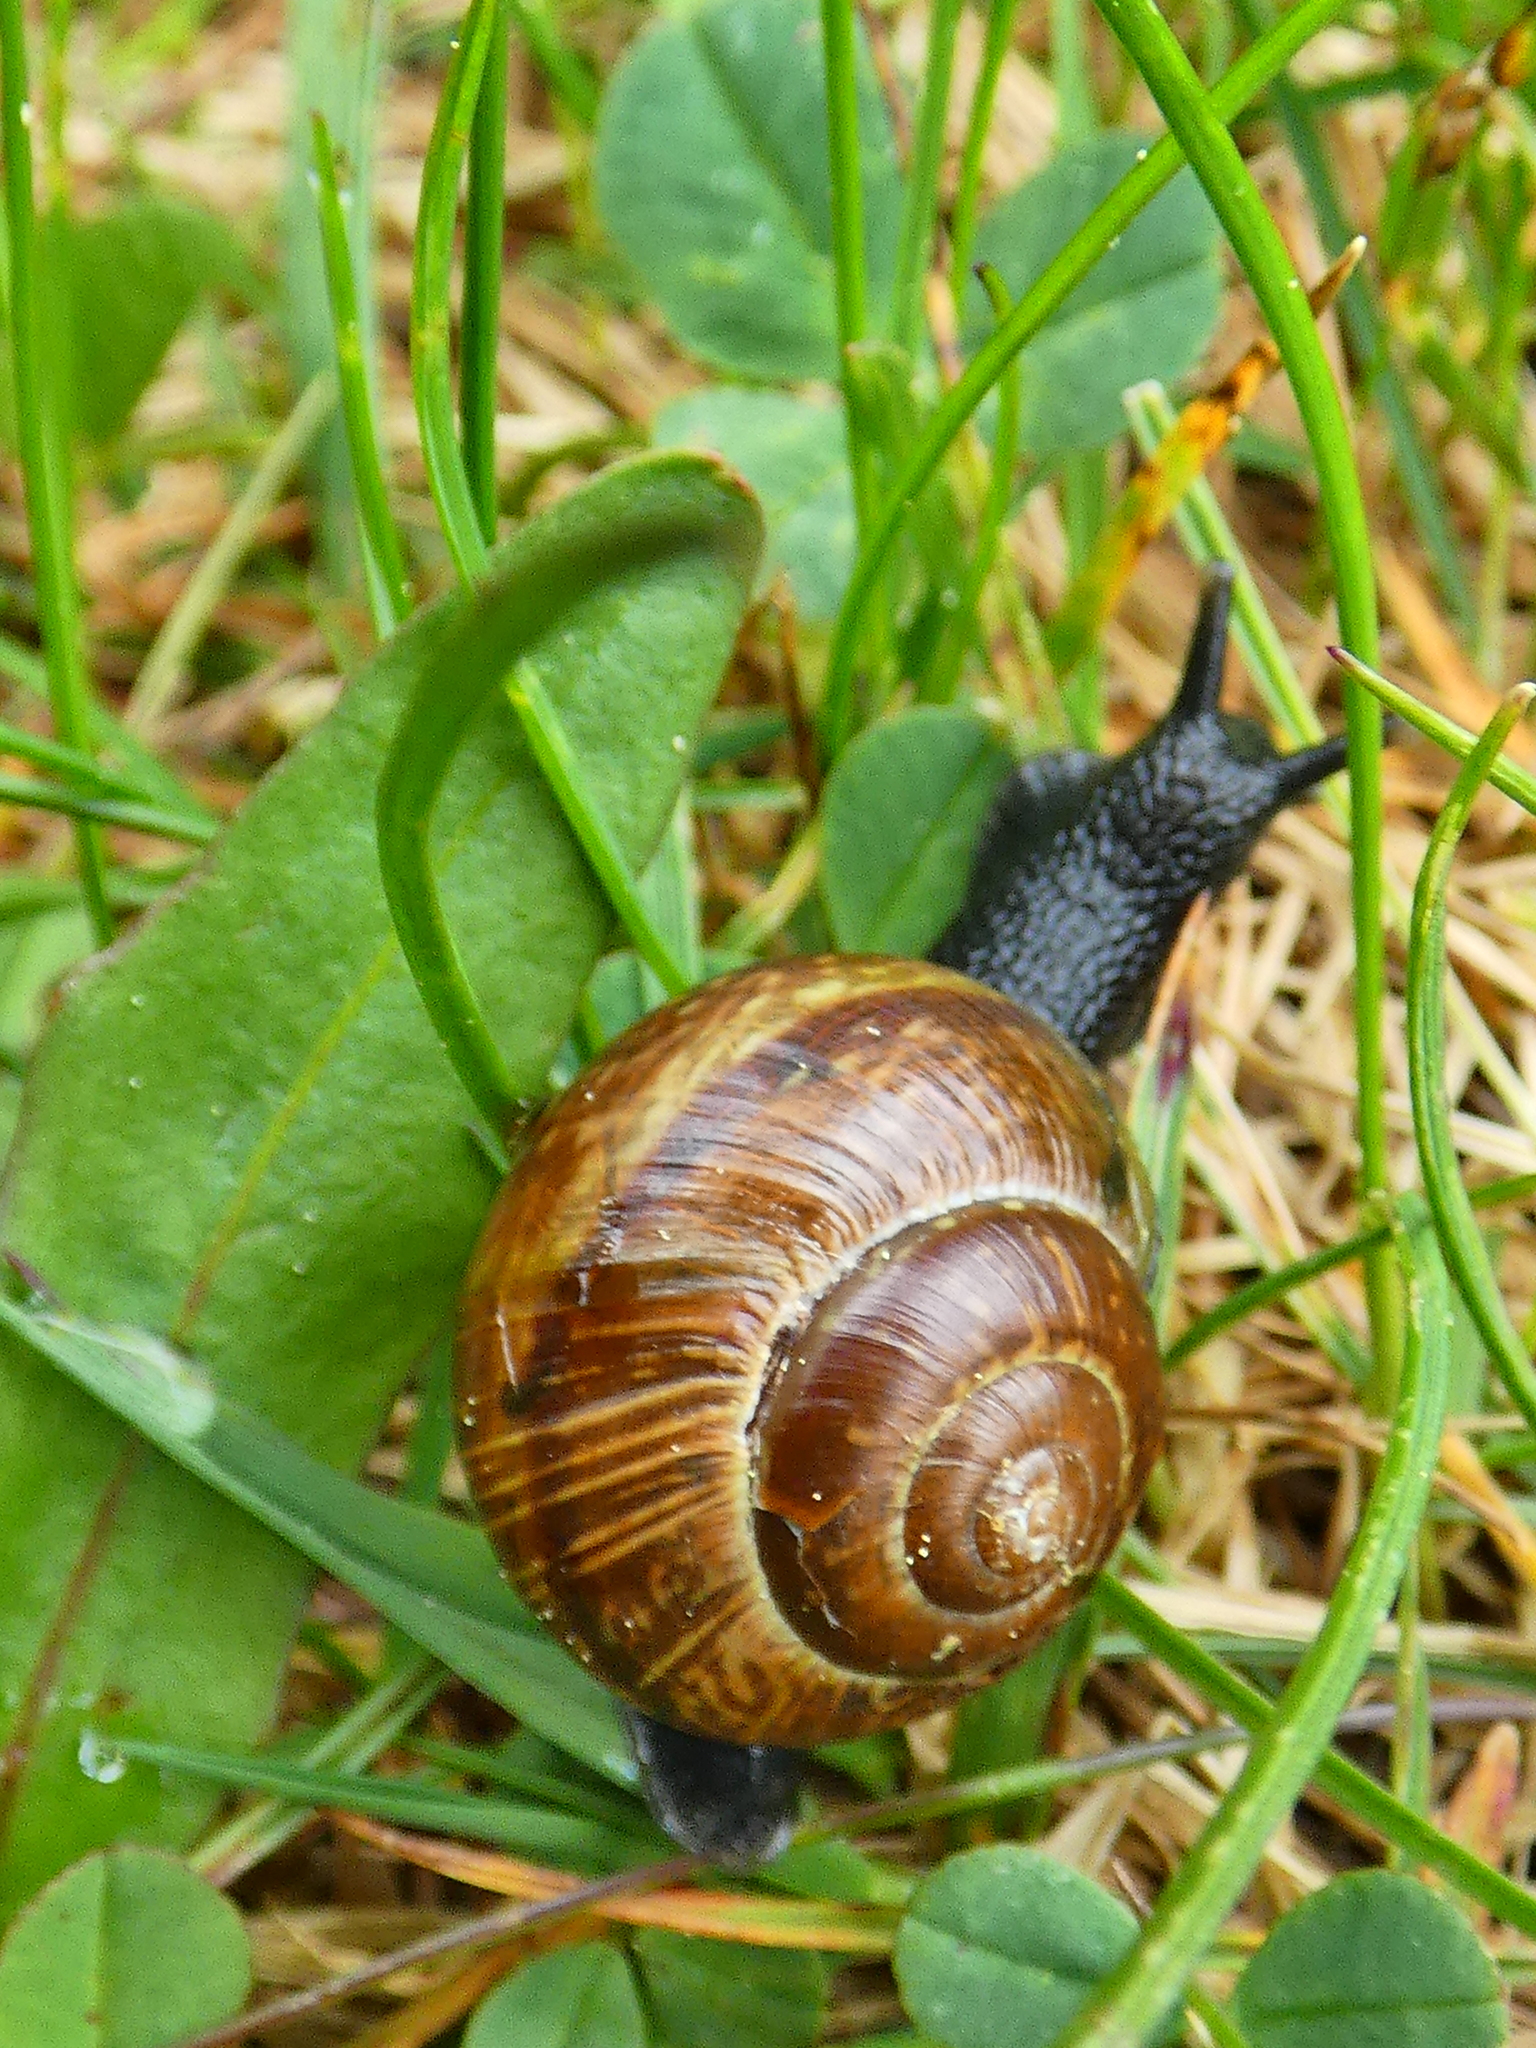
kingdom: Animalia
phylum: Mollusca
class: Gastropoda
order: Stylommatophora
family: Helicidae
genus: Arianta
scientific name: Arianta arbustorum
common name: Copse snail
